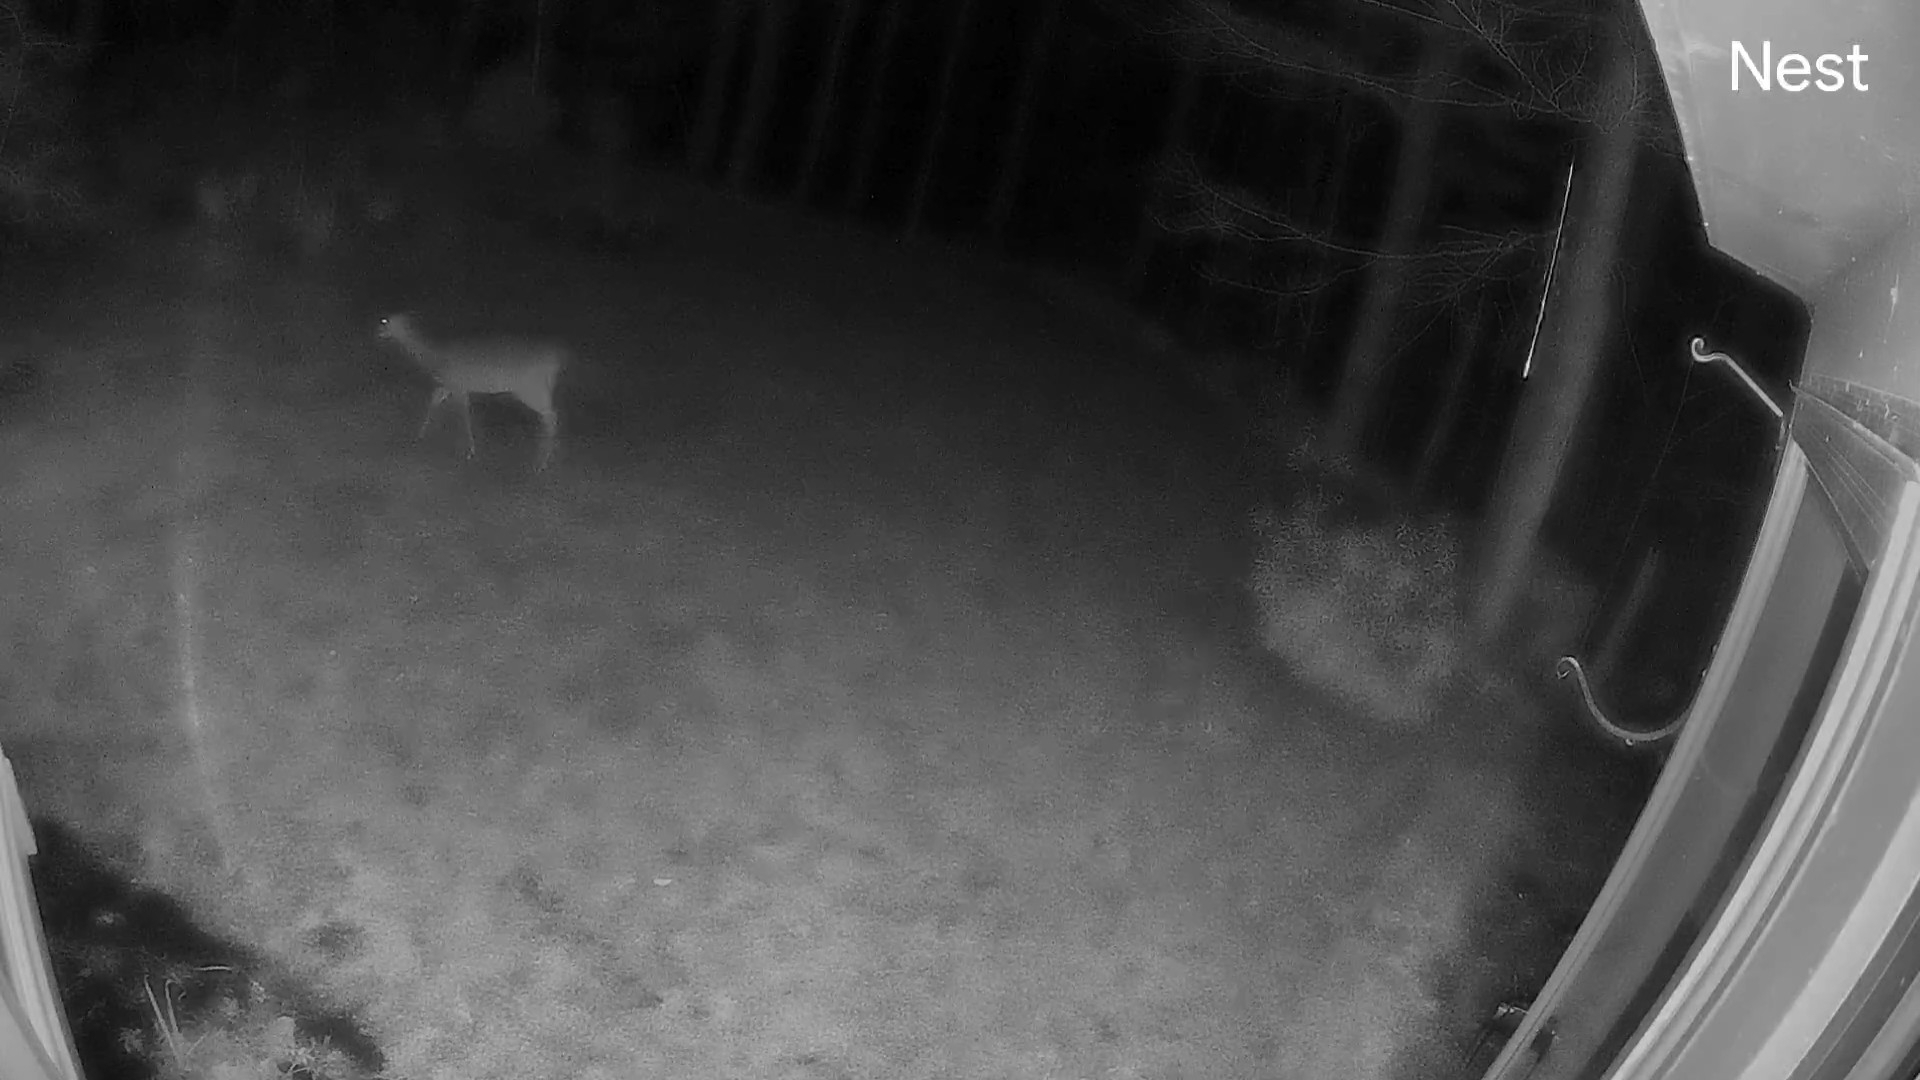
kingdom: Animalia
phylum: Chordata
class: Mammalia
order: Artiodactyla
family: Cervidae
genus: Odocoileus
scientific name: Odocoileus virginianus
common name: White-tailed deer
